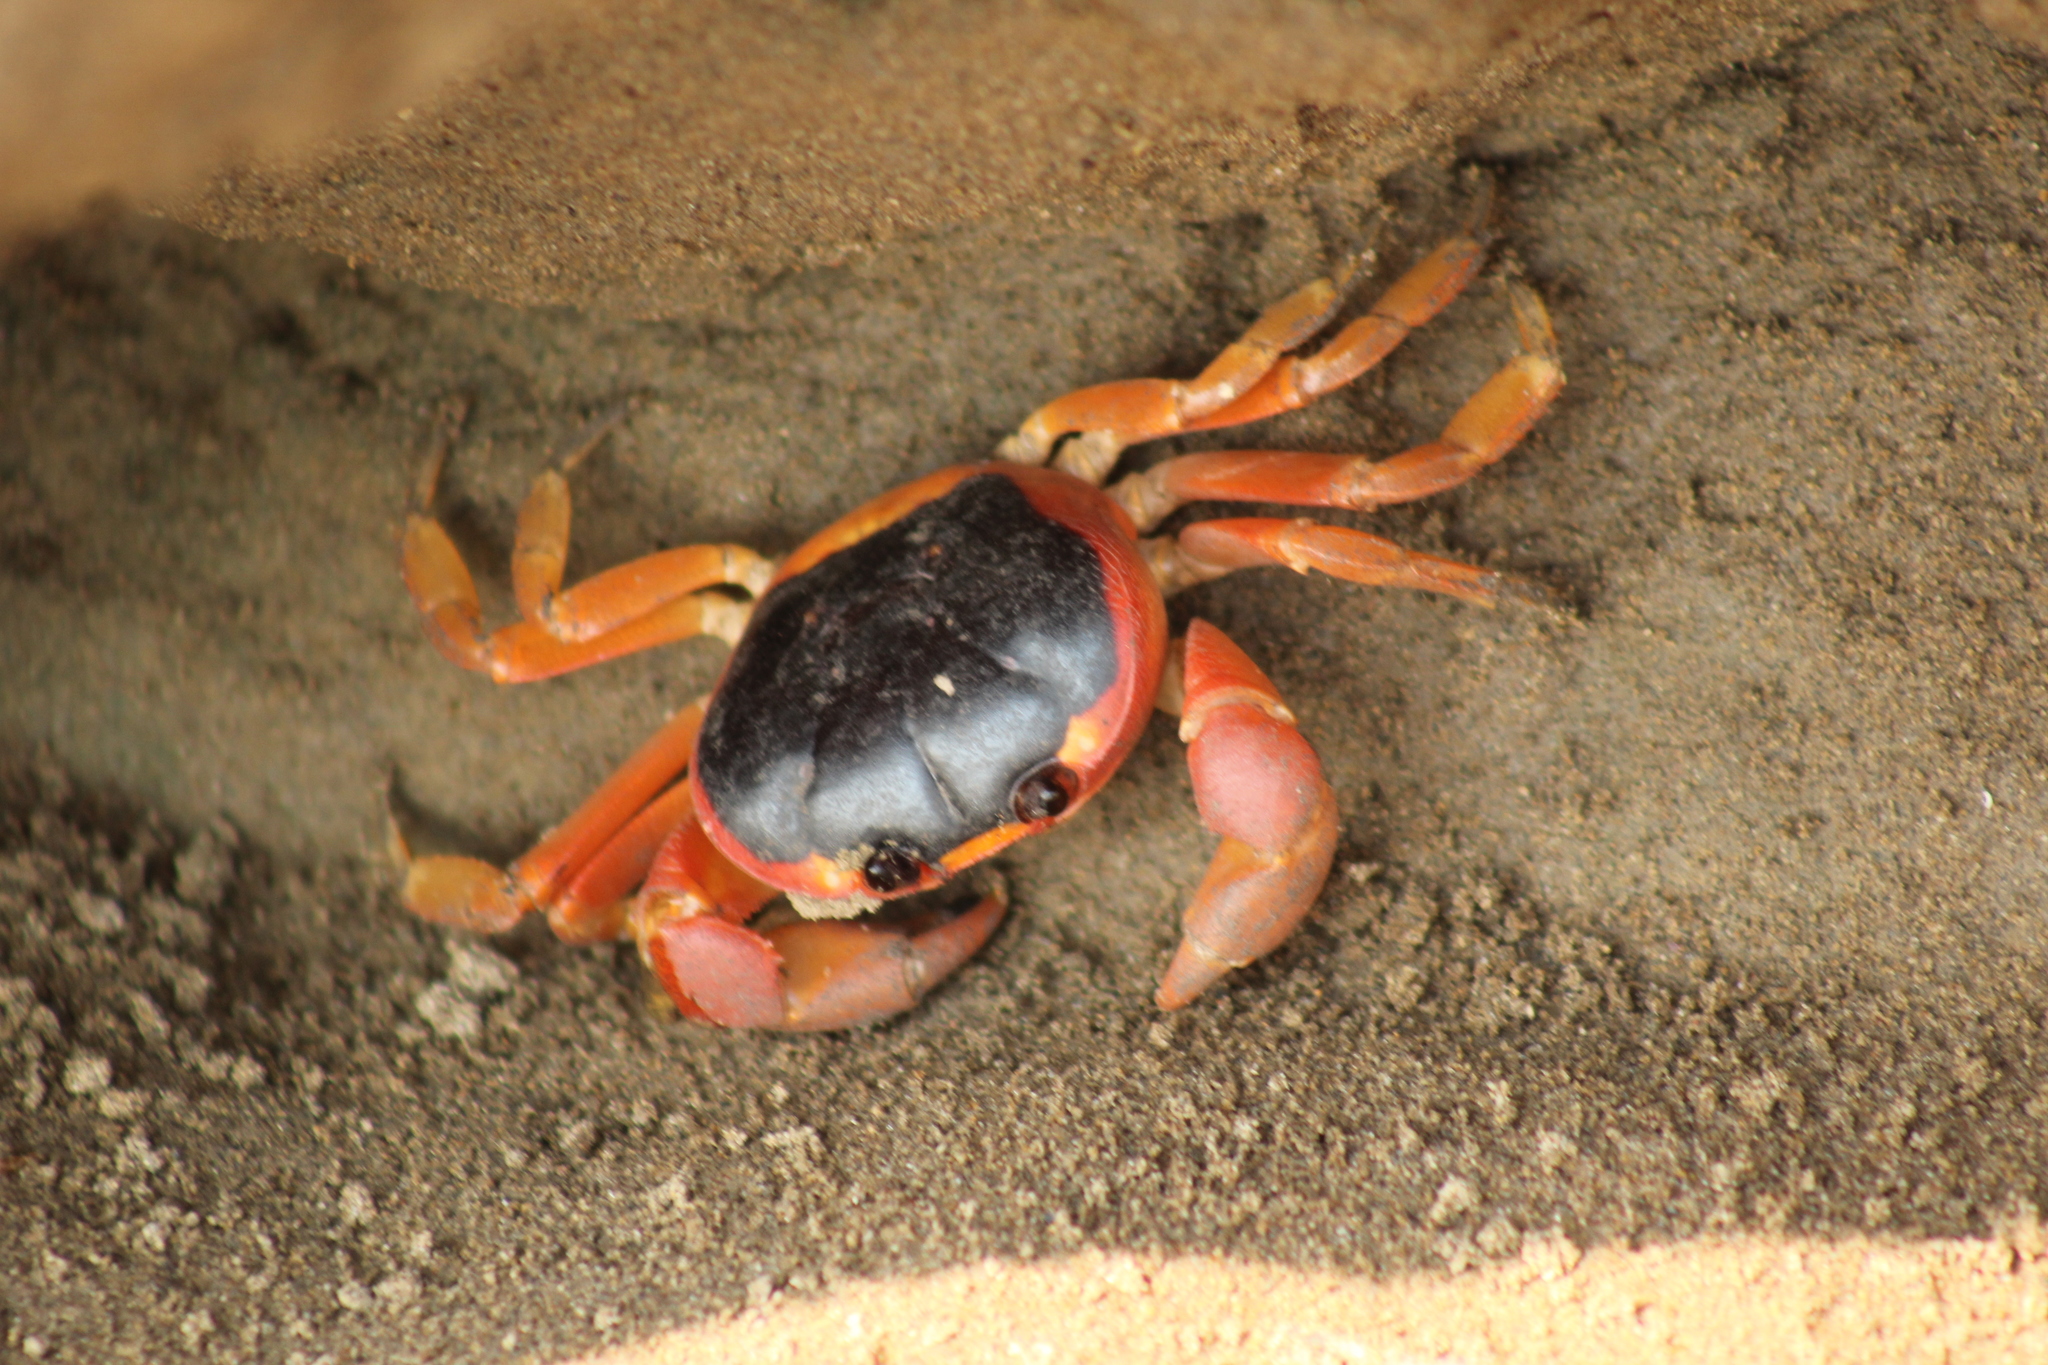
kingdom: Animalia
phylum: Arthropoda
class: Malacostraca
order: Decapoda
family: Gecarcinidae
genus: Gecarcinus
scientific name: Gecarcinus lateralis
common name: Bermuda land crab
